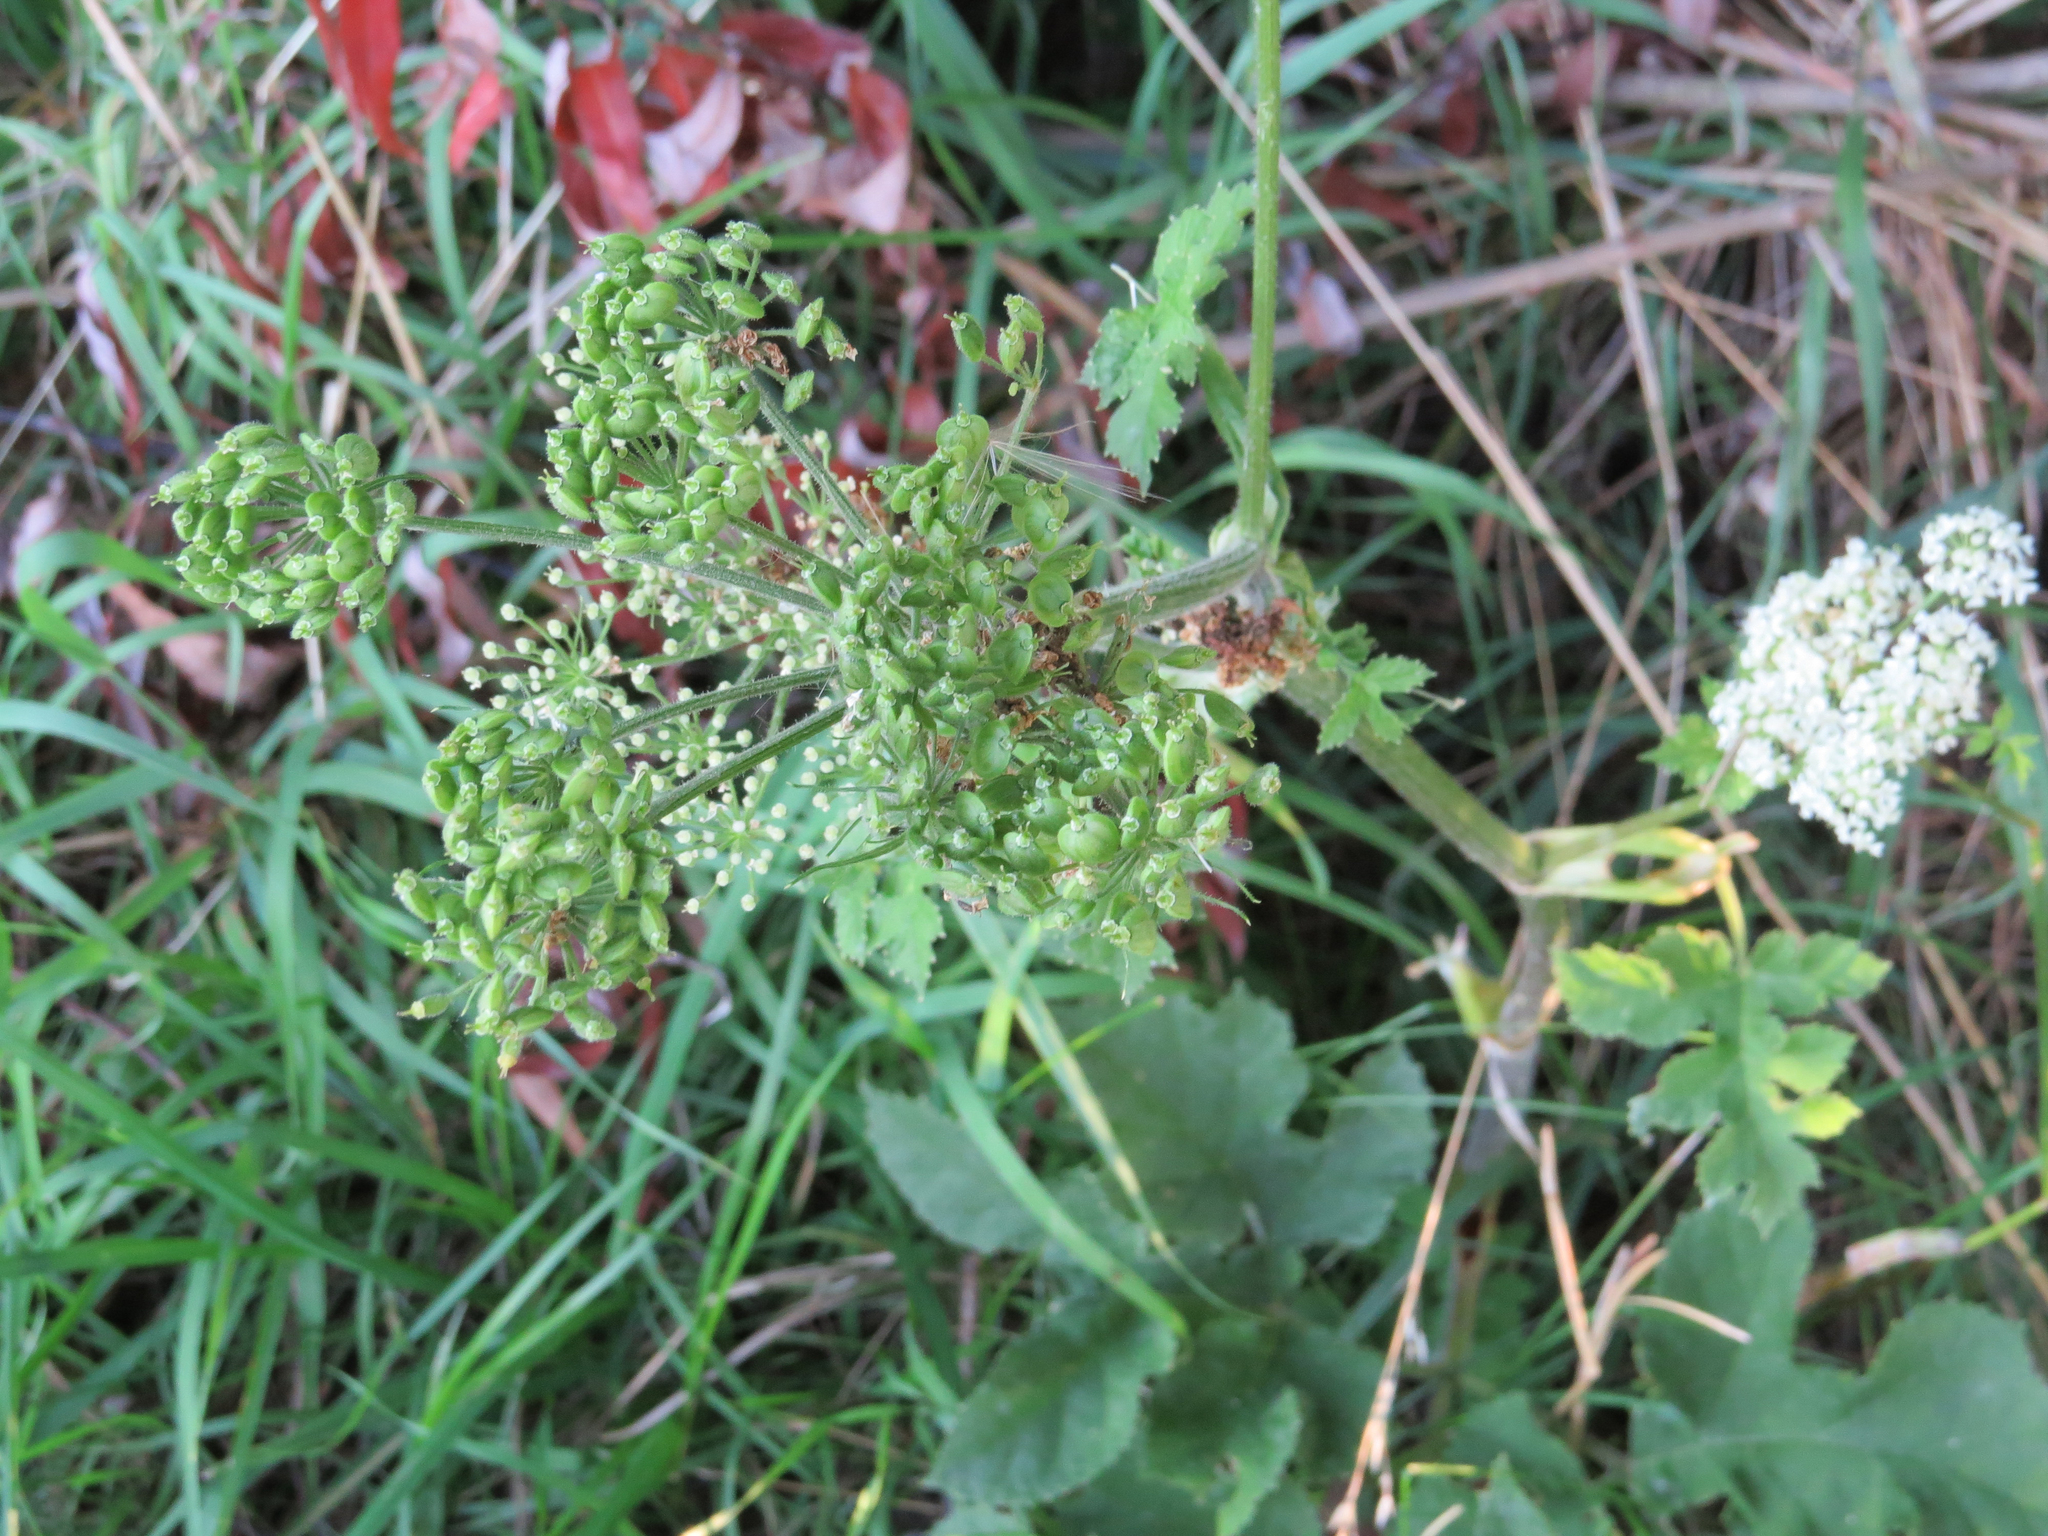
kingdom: Plantae
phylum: Tracheophyta
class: Magnoliopsida
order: Apiales
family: Apiaceae
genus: Heracleum
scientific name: Heracleum sphondylium
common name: Hogweed
